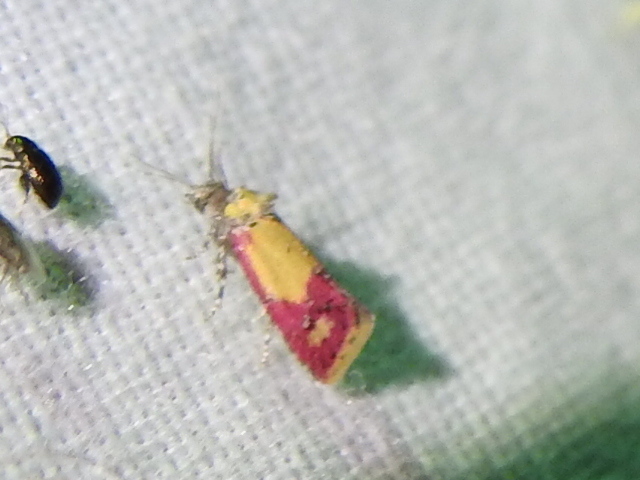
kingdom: Animalia
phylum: Arthropoda
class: Insecta
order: Lepidoptera
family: Tortricidae
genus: Conchylis
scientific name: Conchylis oenotherana
